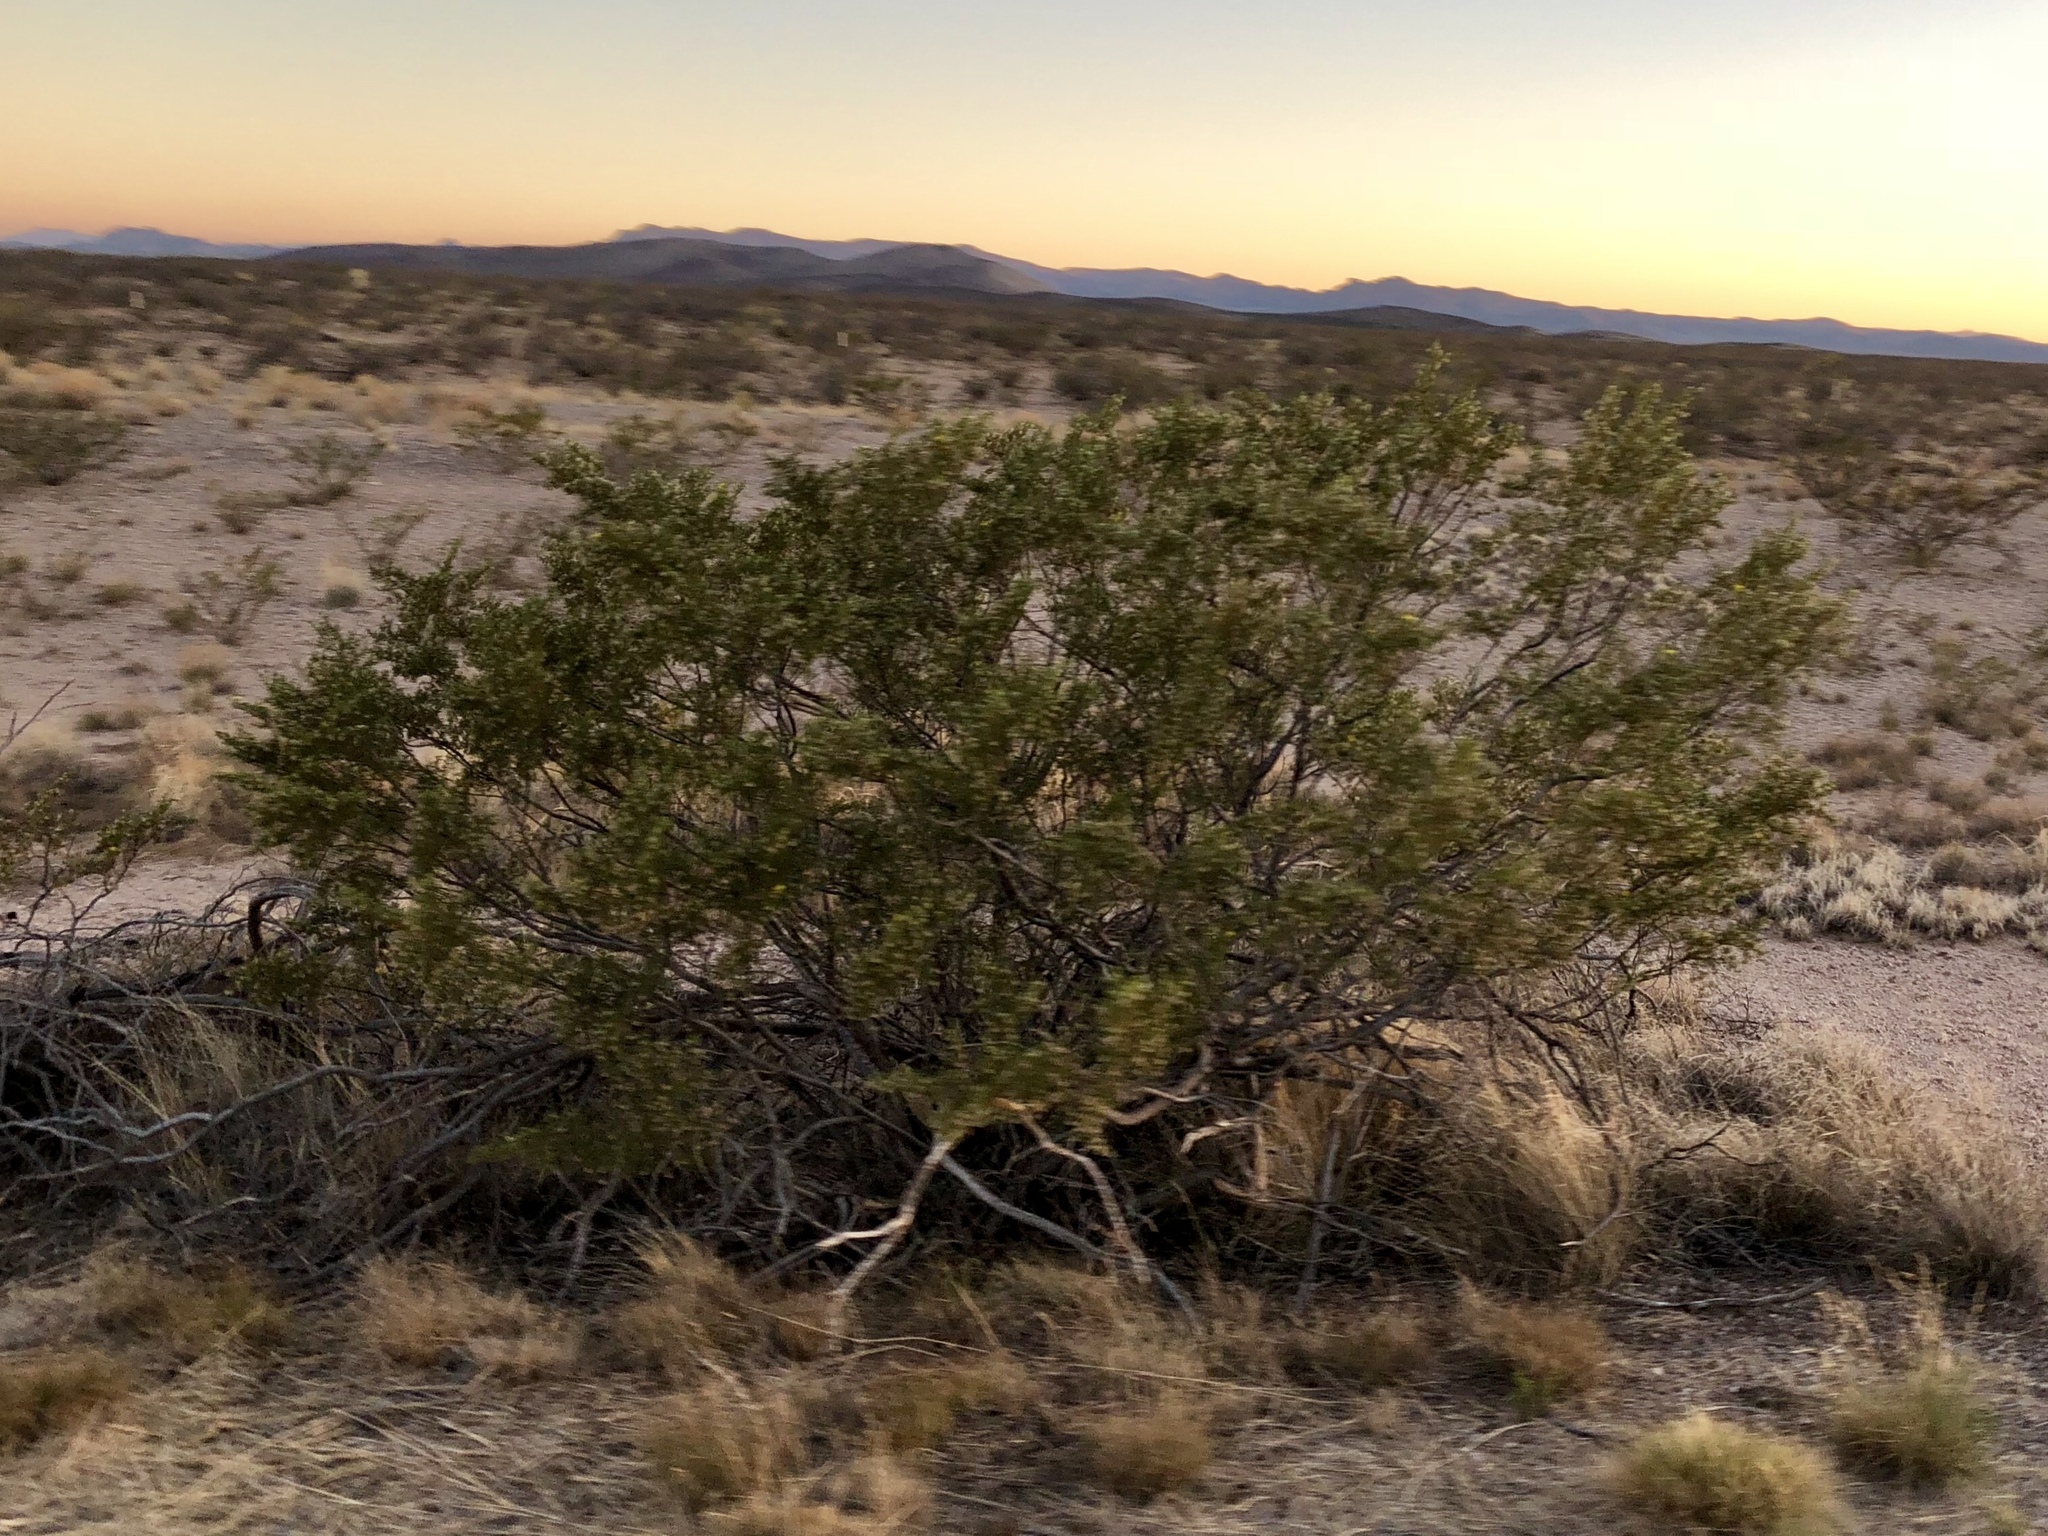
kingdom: Plantae
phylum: Tracheophyta
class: Magnoliopsida
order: Zygophyllales
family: Zygophyllaceae
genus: Larrea
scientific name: Larrea tridentata
